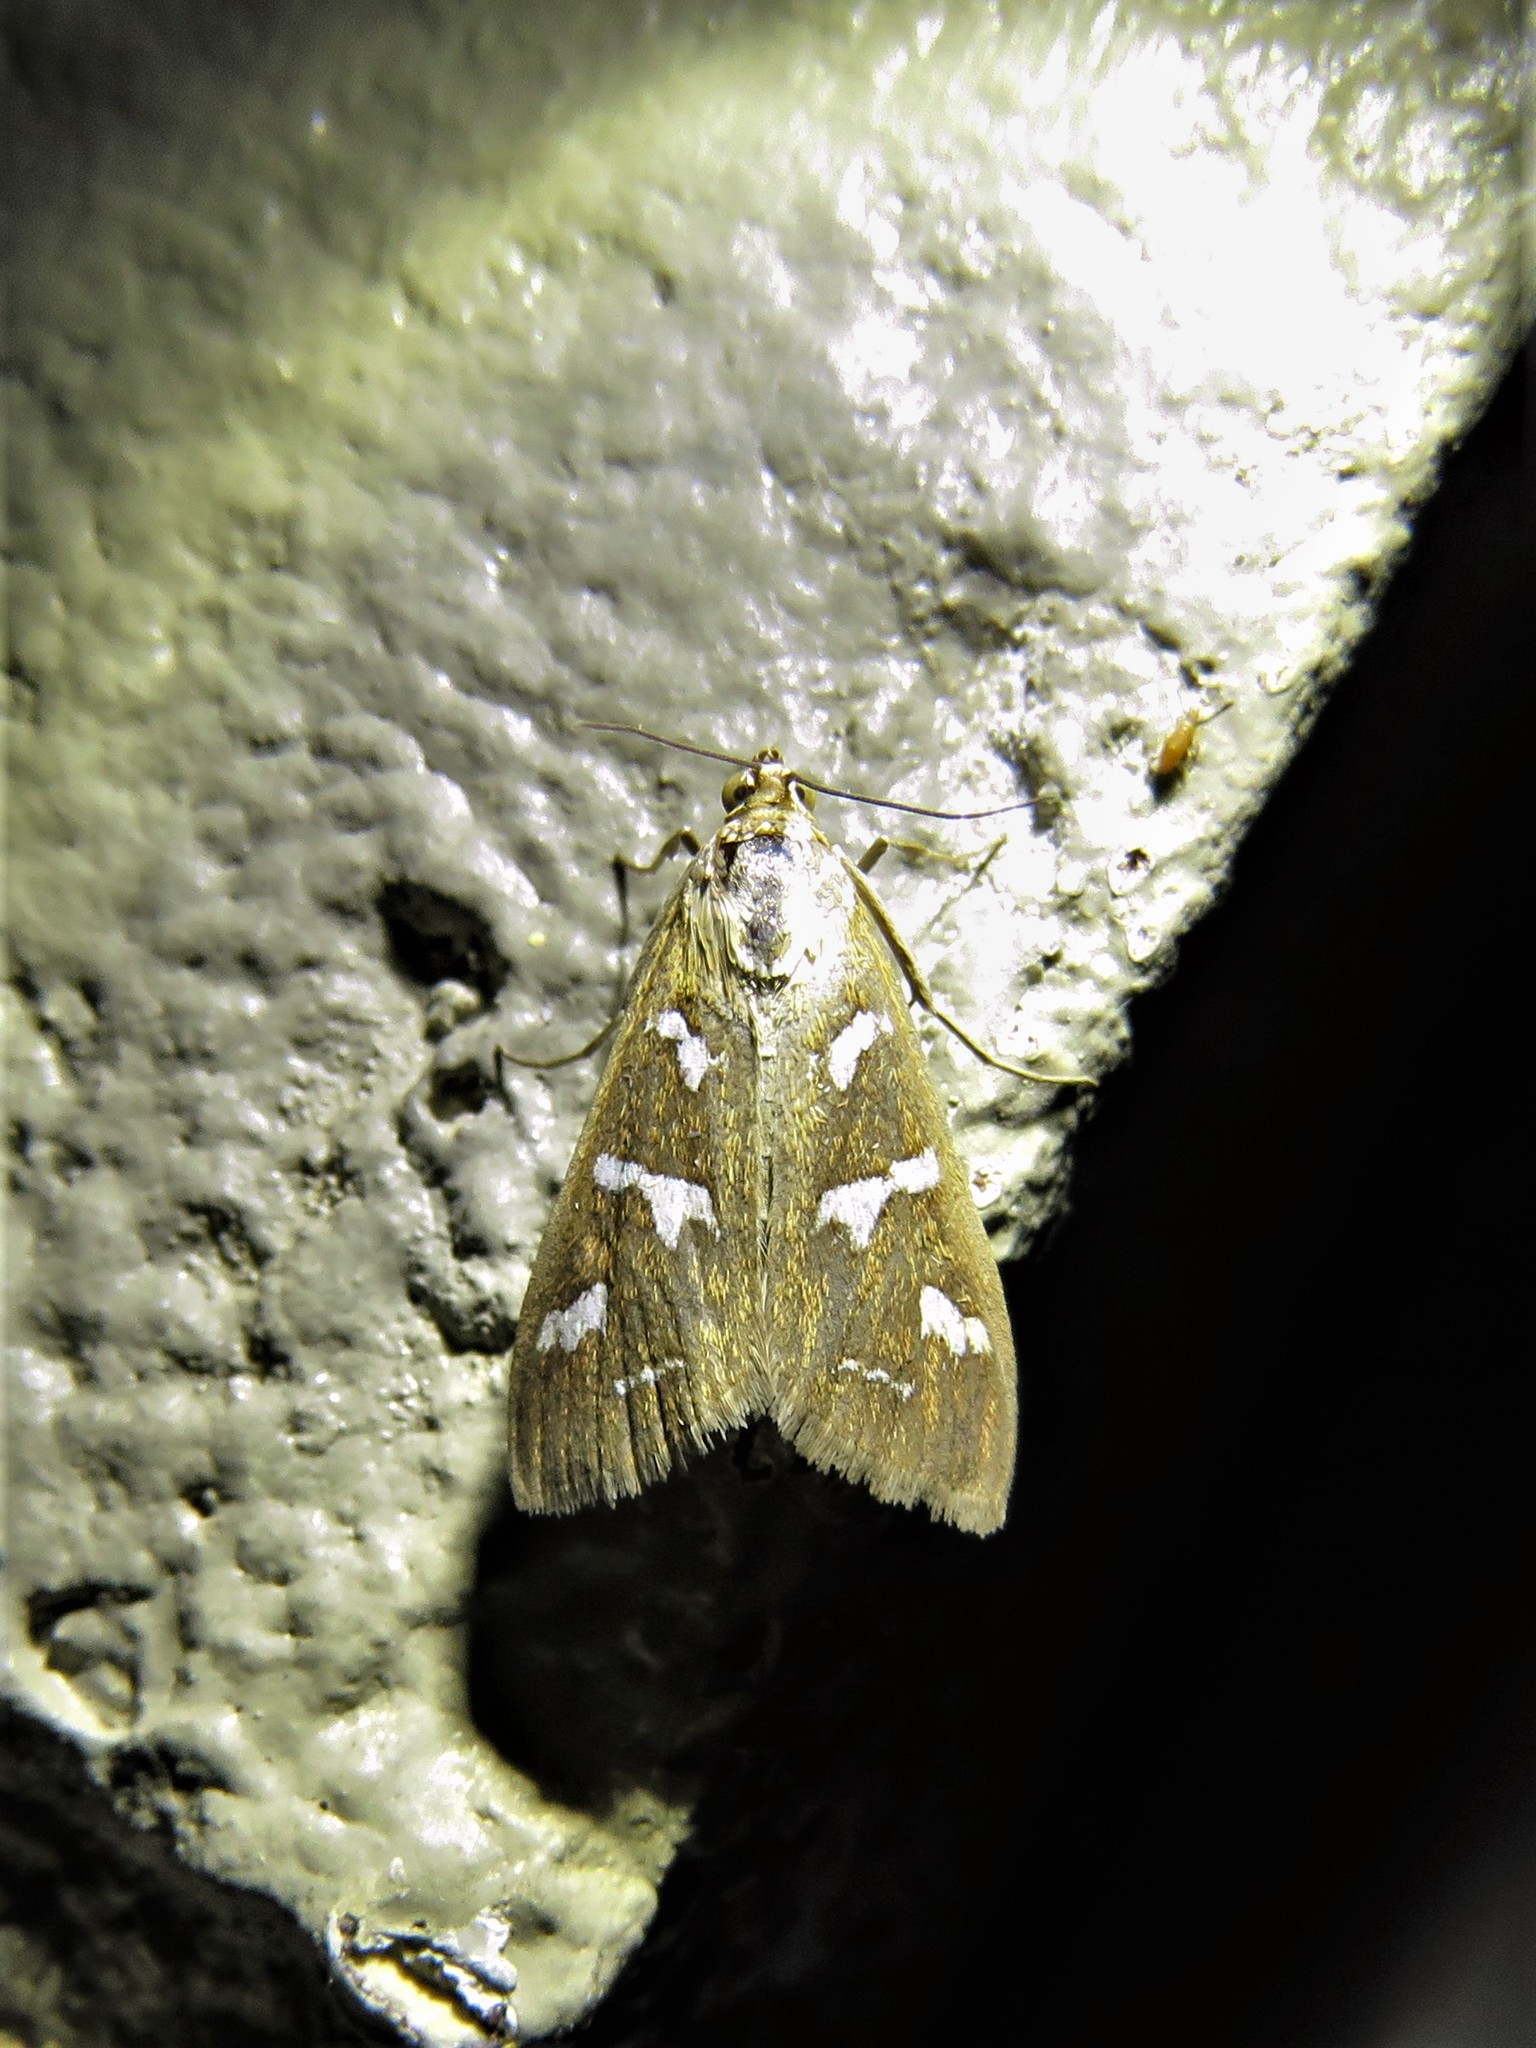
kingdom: Animalia
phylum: Arthropoda
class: Insecta
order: Lepidoptera
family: Crambidae
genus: Diastictis
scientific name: Diastictis fracturalis
